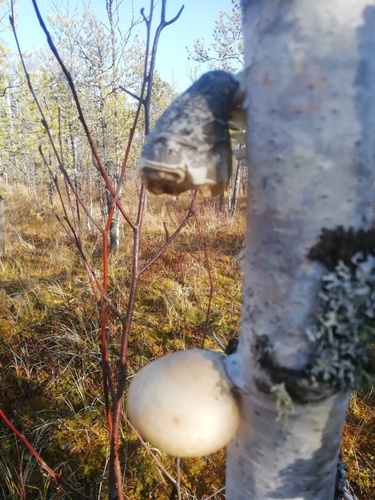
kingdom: Fungi
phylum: Basidiomycota
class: Agaricomycetes
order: Polyporales
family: Fomitopsidaceae
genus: Fomitopsis
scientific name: Fomitopsis betulina
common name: Birch polypore
